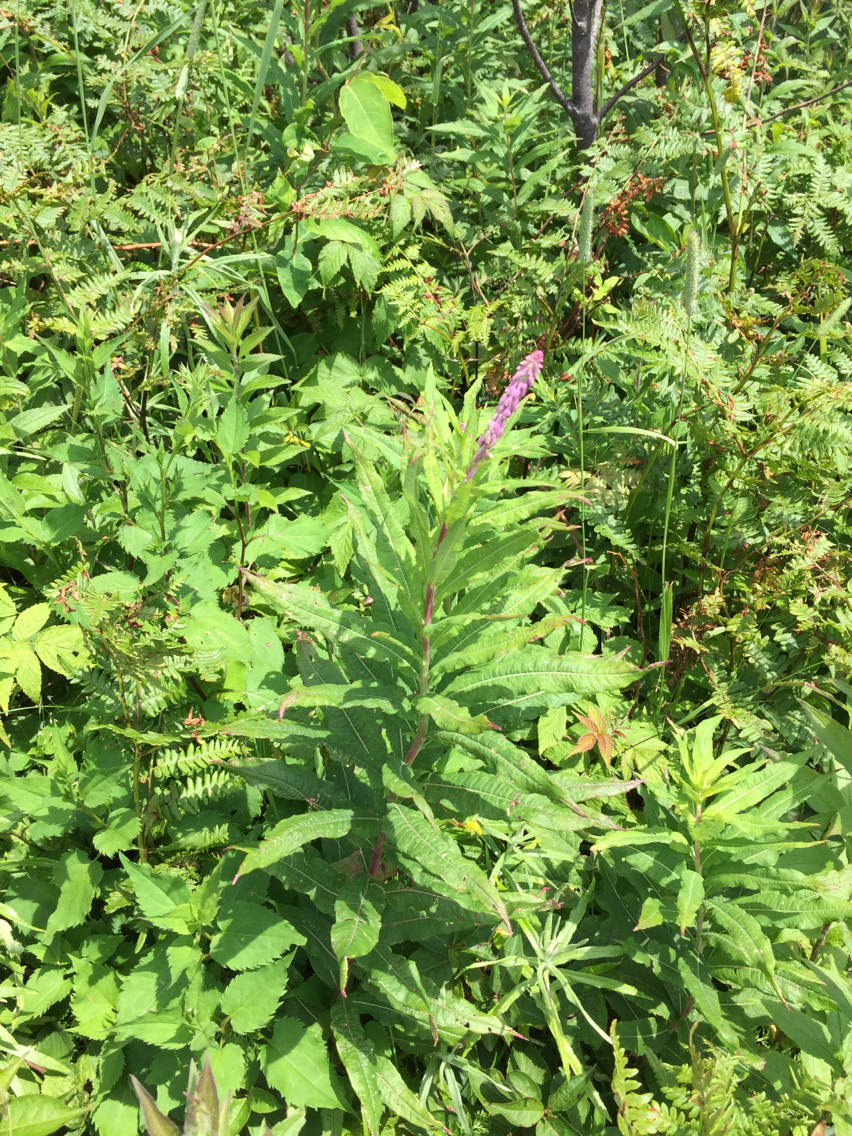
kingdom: Plantae
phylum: Tracheophyta
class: Magnoliopsida
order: Myrtales
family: Onagraceae
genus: Chamaenerion
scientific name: Chamaenerion angustifolium
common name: Fireweed
